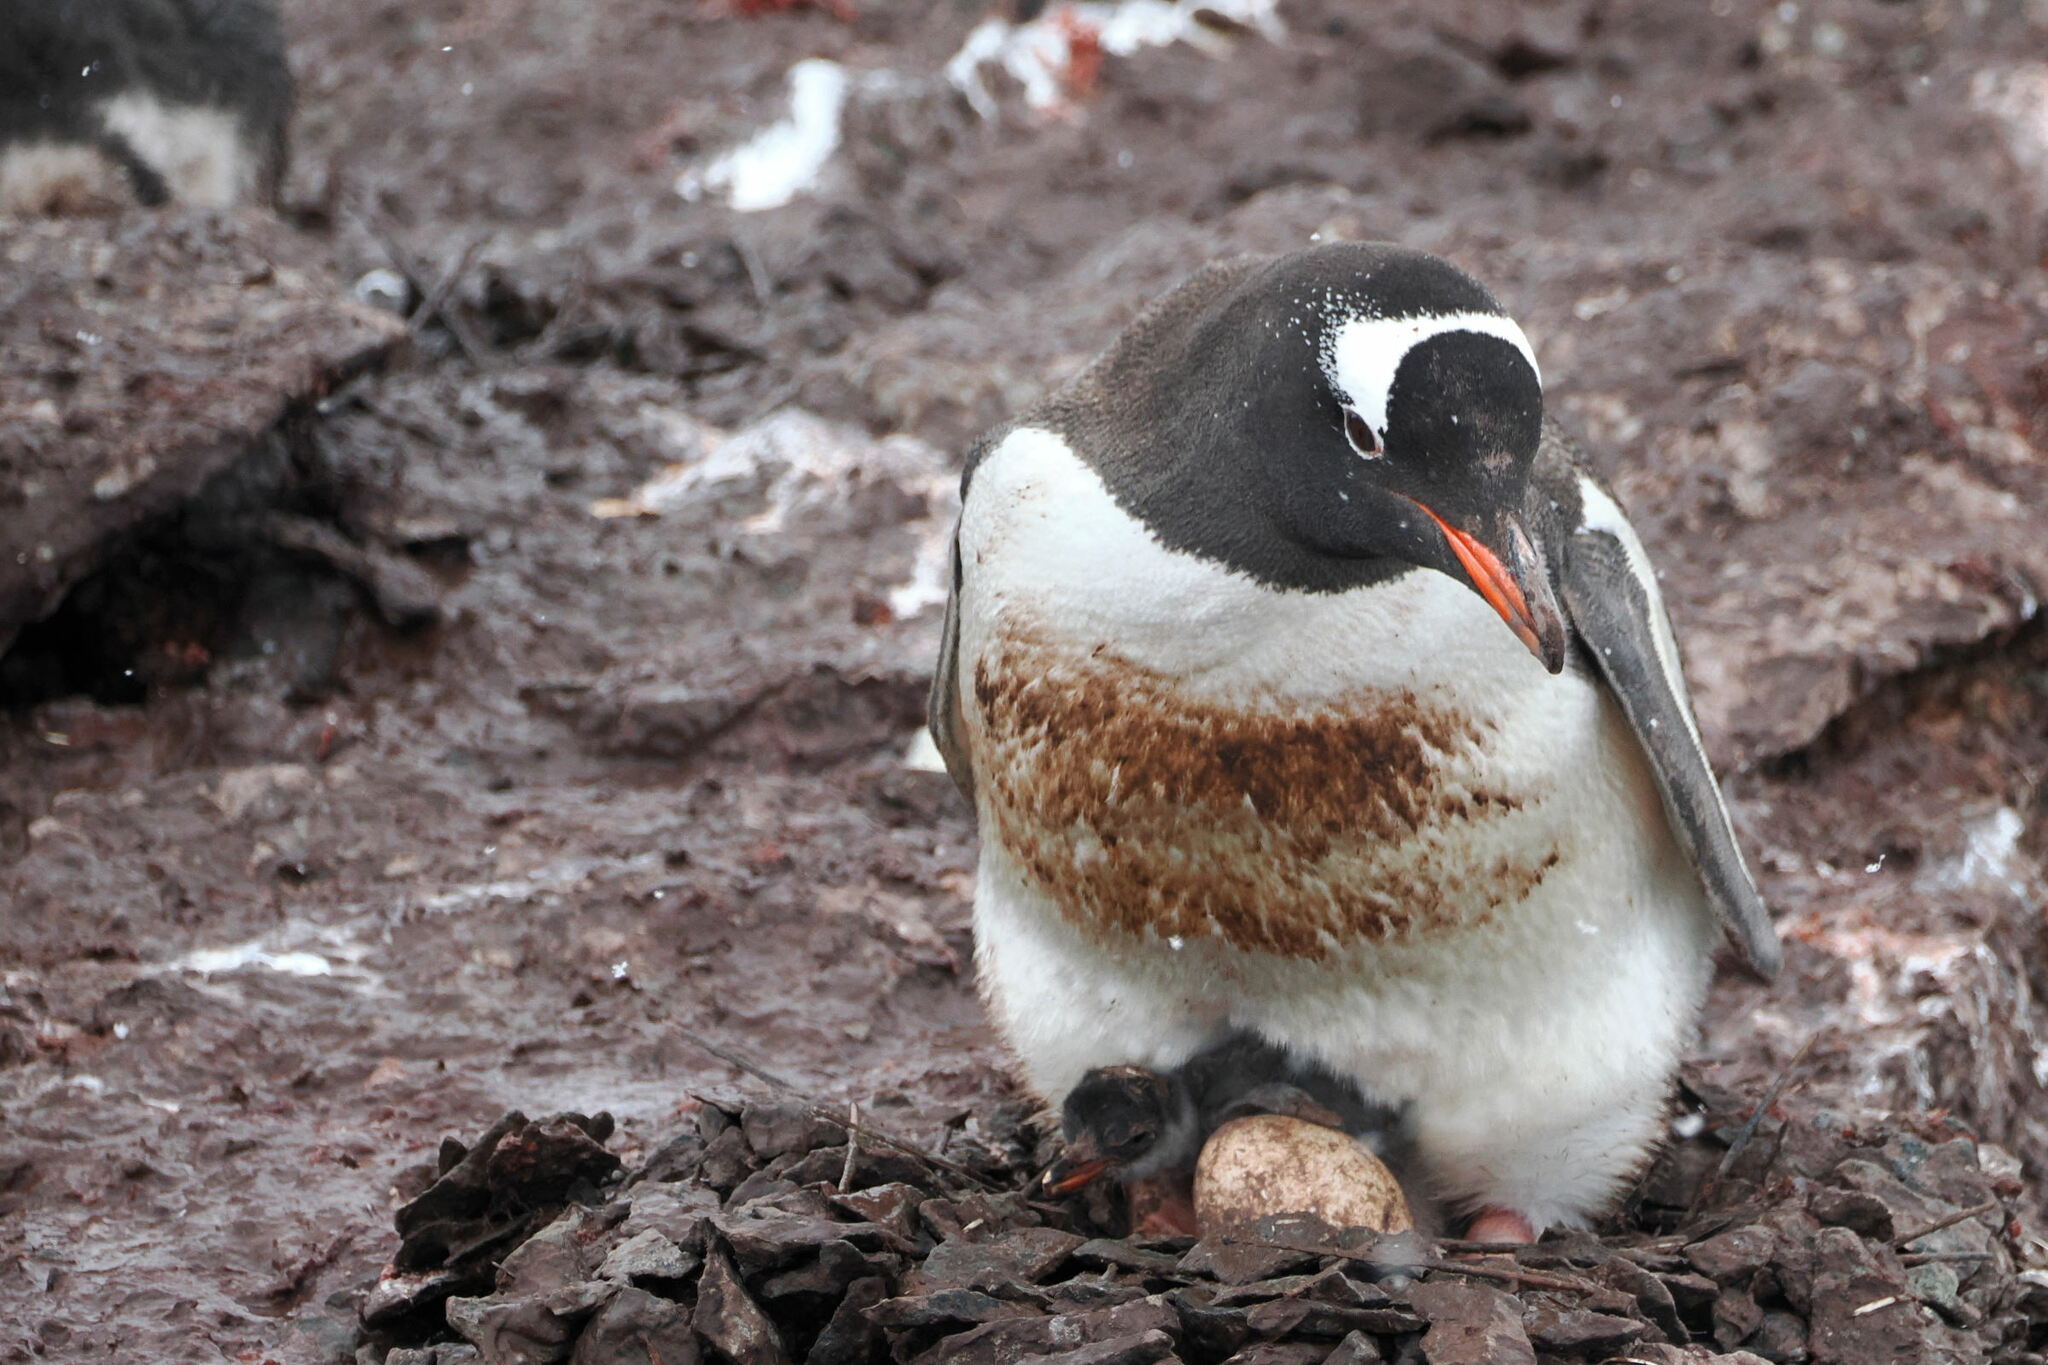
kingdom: Animalia
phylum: Chordata
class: Aves
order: Sphenisciformes
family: Spheniscidae
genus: Pygoscelis
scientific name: Pygoscelis papua
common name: Gentoo penguin
